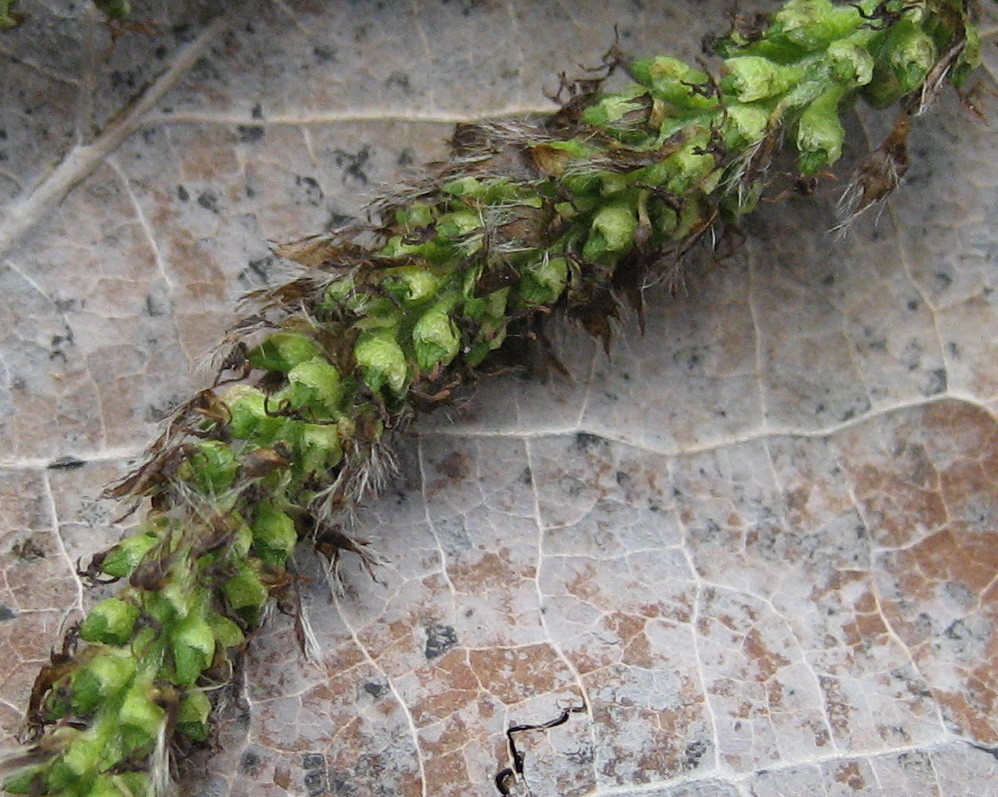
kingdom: Plantae
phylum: Tracheophyta
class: Magnoliopsida
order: Malpighiales
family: Salicaceae
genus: Populus
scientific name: Populus grandidentata
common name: Bigtooth aspen
